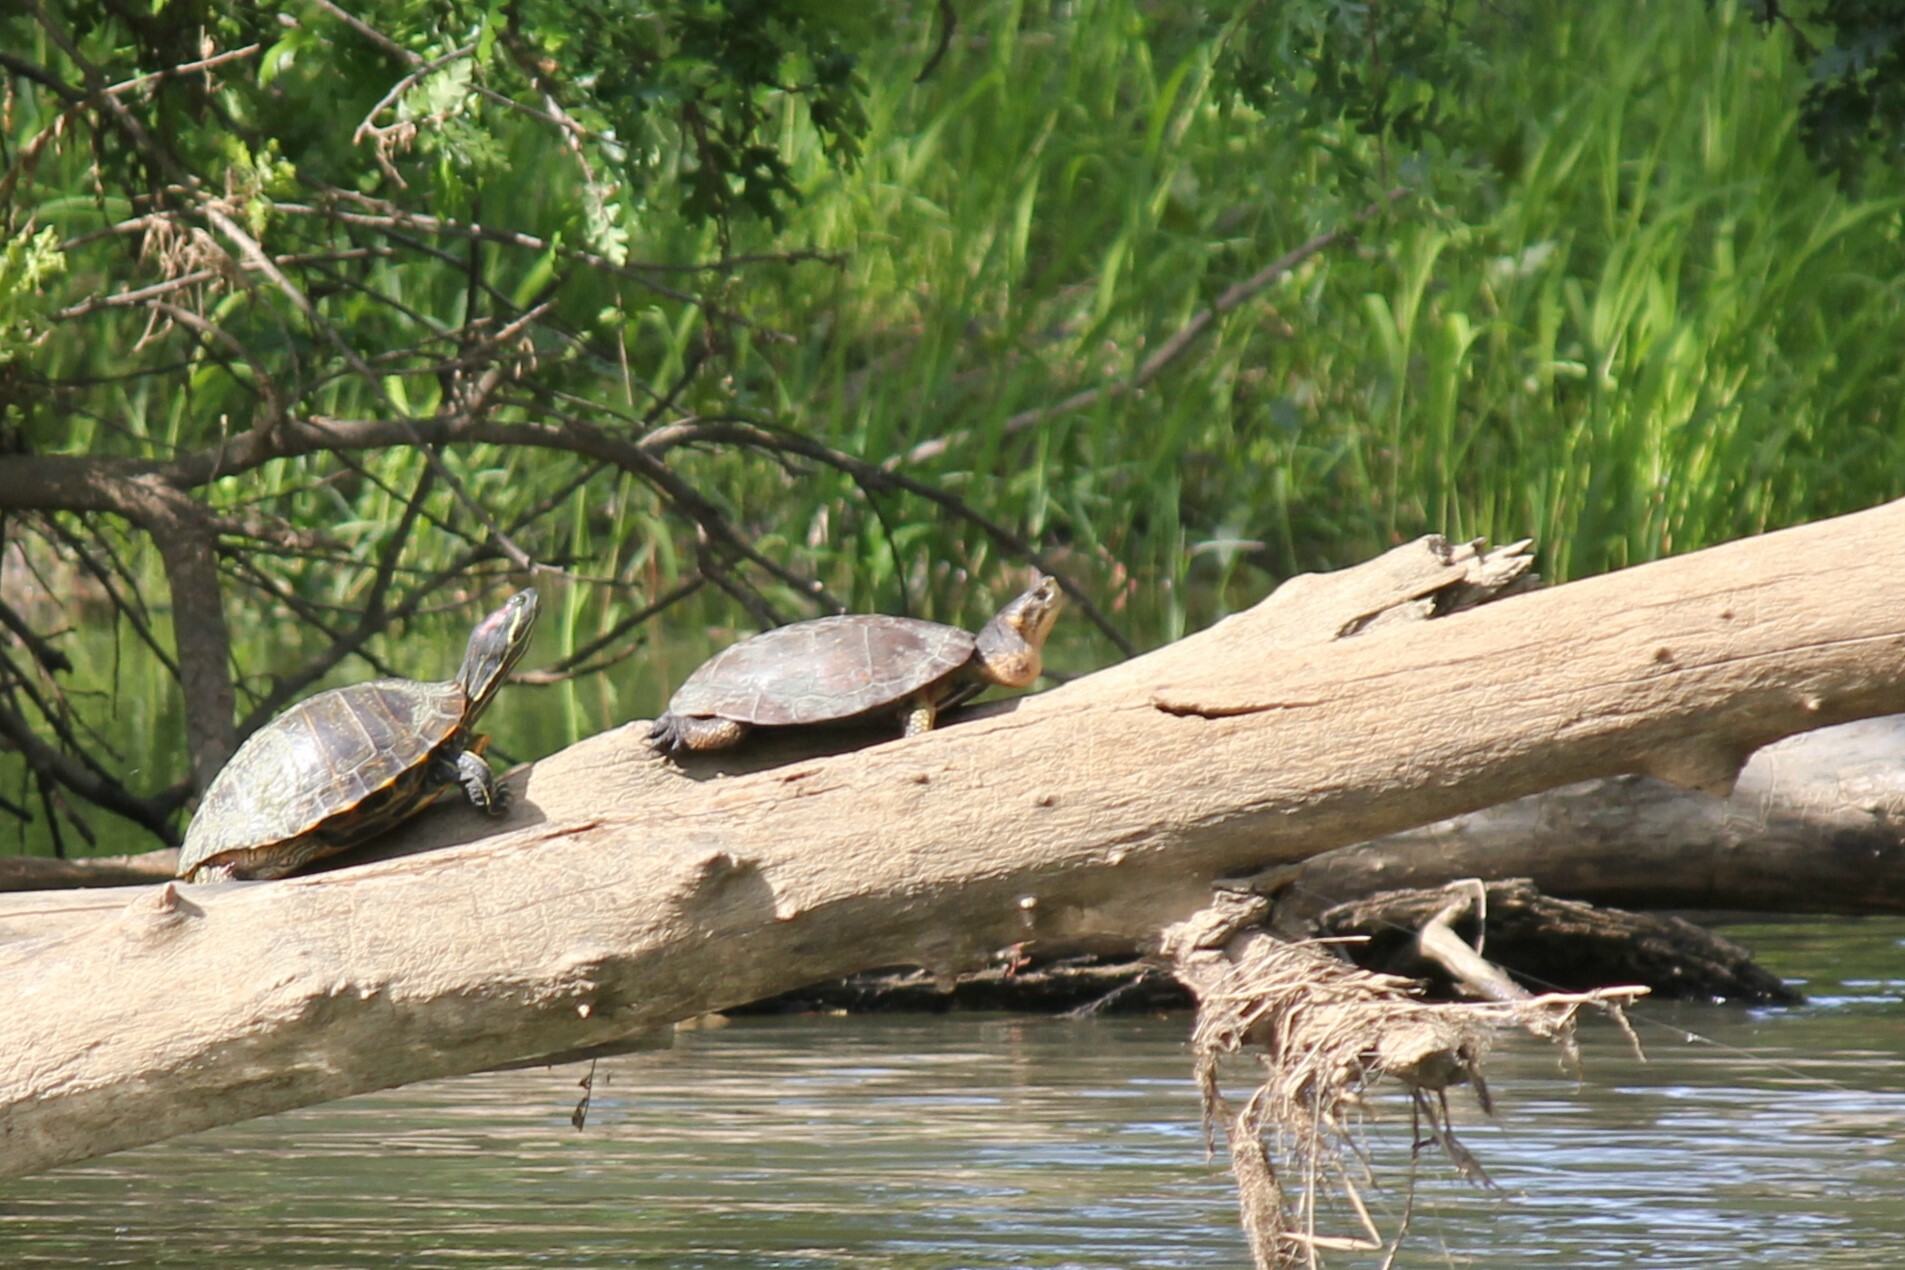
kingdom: Animalia
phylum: Chordata
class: Testudines
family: Emydidae
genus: Actinemys
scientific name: Actinemys marmorata
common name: Western pond turtle
